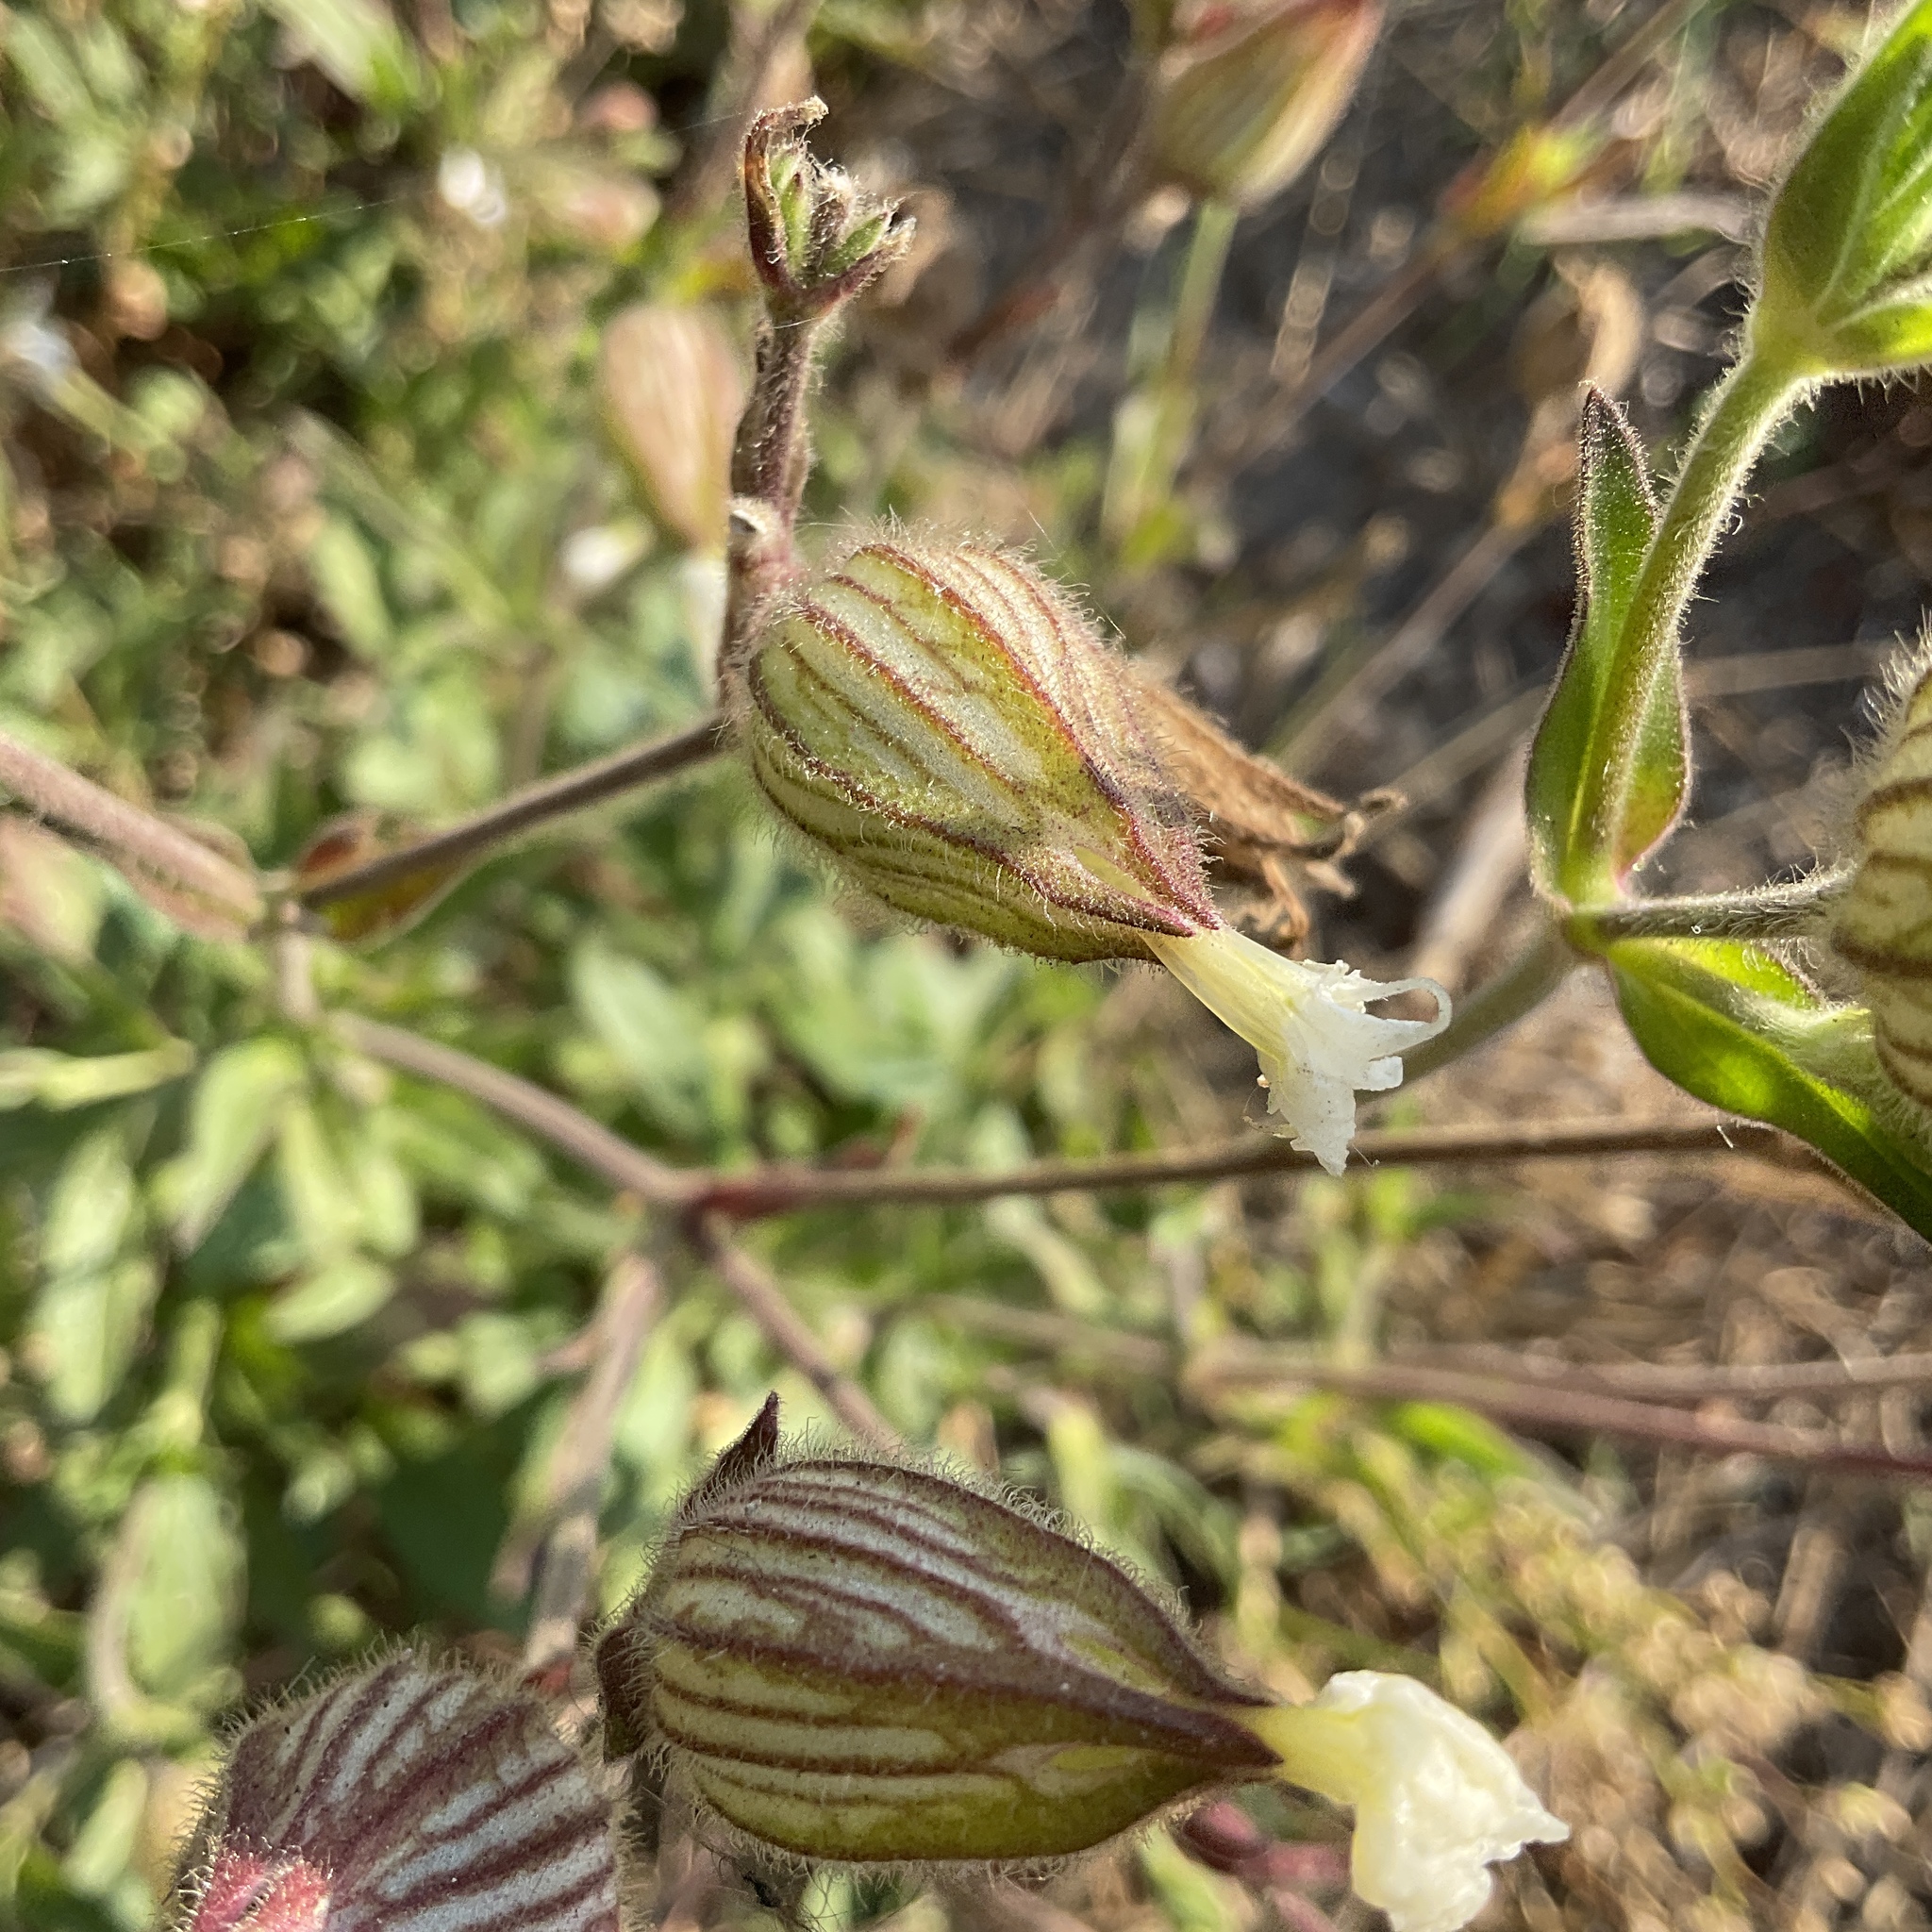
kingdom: Plantae
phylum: Tracheophyta
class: Magnoliopsida
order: Caryophyllales
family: Caryophyllaceae
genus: Silene
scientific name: Silene latifolia
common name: White campion
